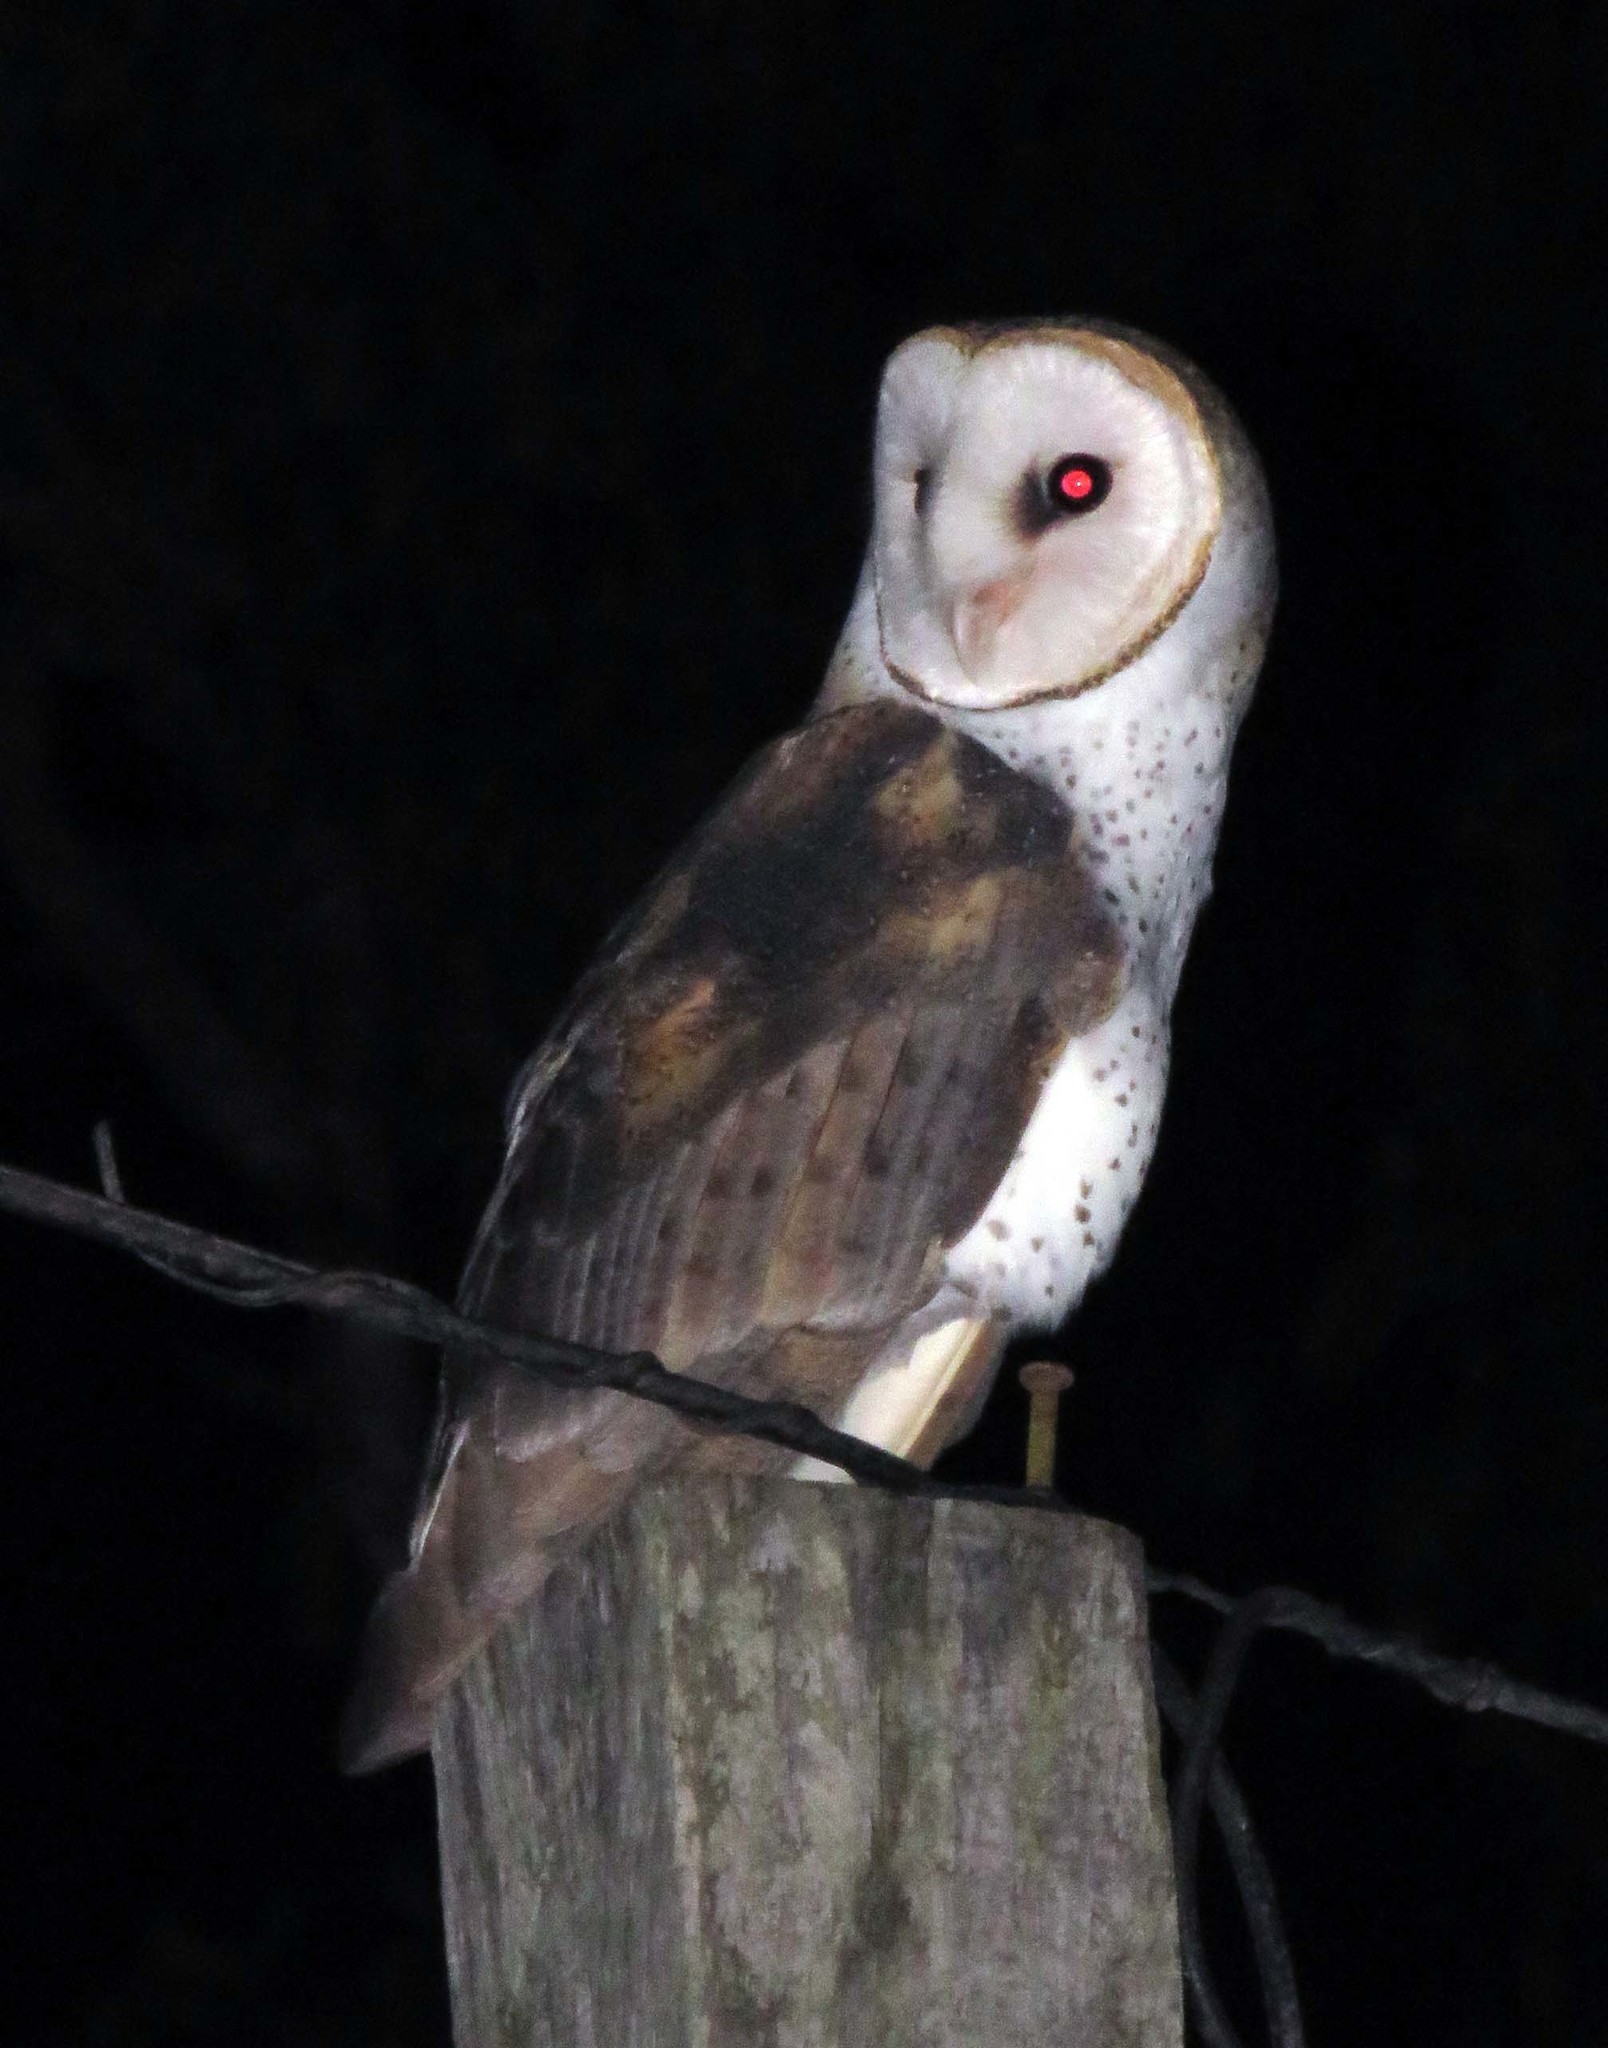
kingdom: Animalia
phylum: Chordata
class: Aves
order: Strigiformes
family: Tytonidae
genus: Tyto
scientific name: Tyto alba
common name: Barn owl
